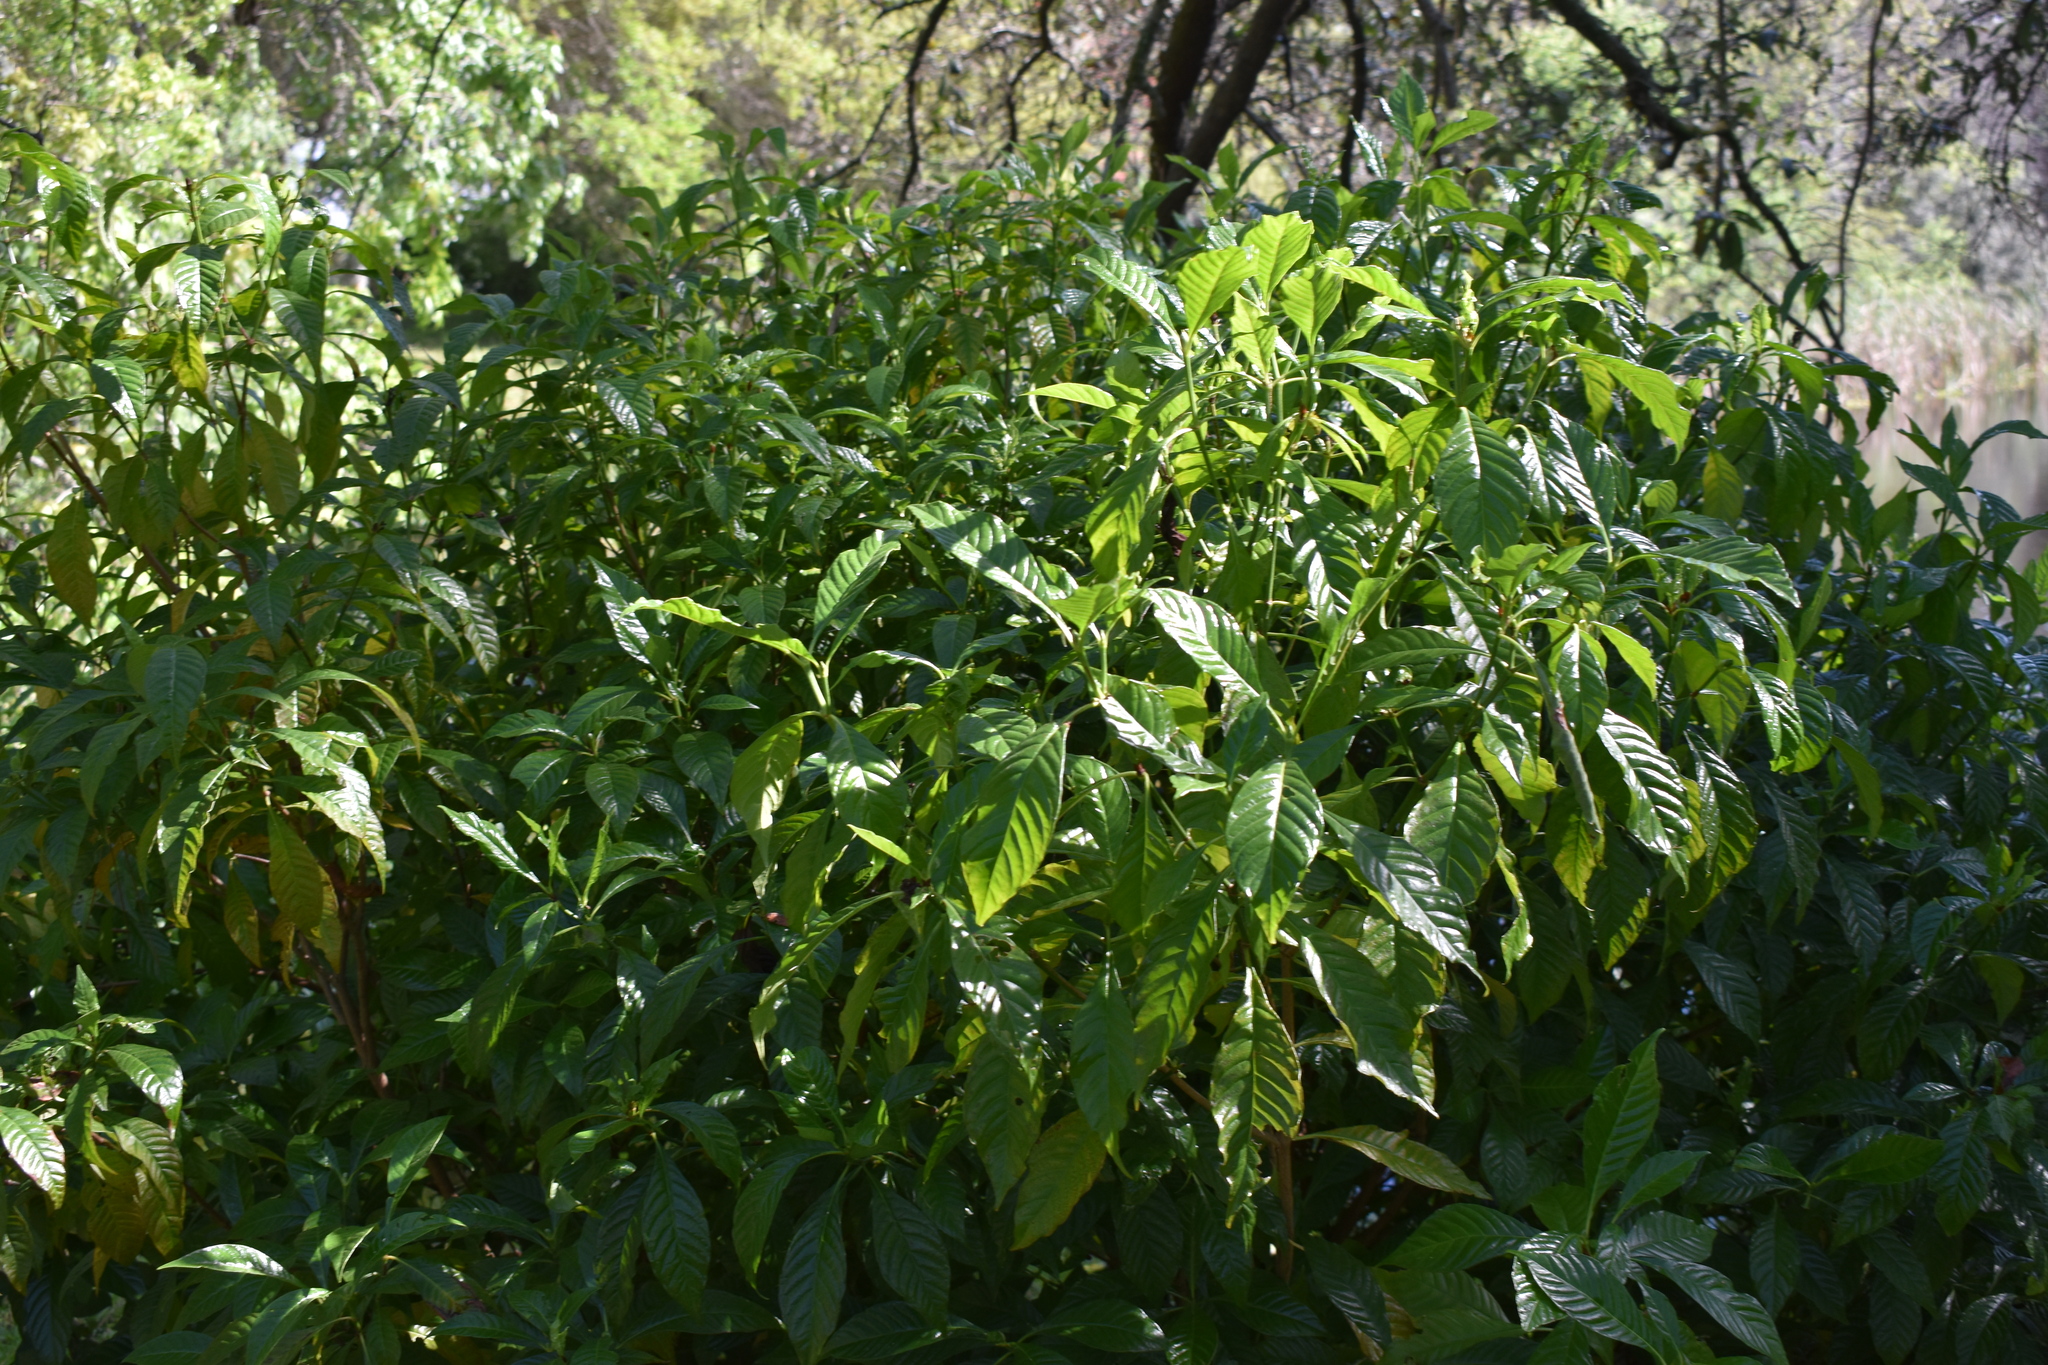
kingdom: Plantae
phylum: Tracheophyta
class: Magnoliopsida
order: Gentianales
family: Rubiaceae
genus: Psychotria
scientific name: Psychotria nervosa
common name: Bastard cankerberry
